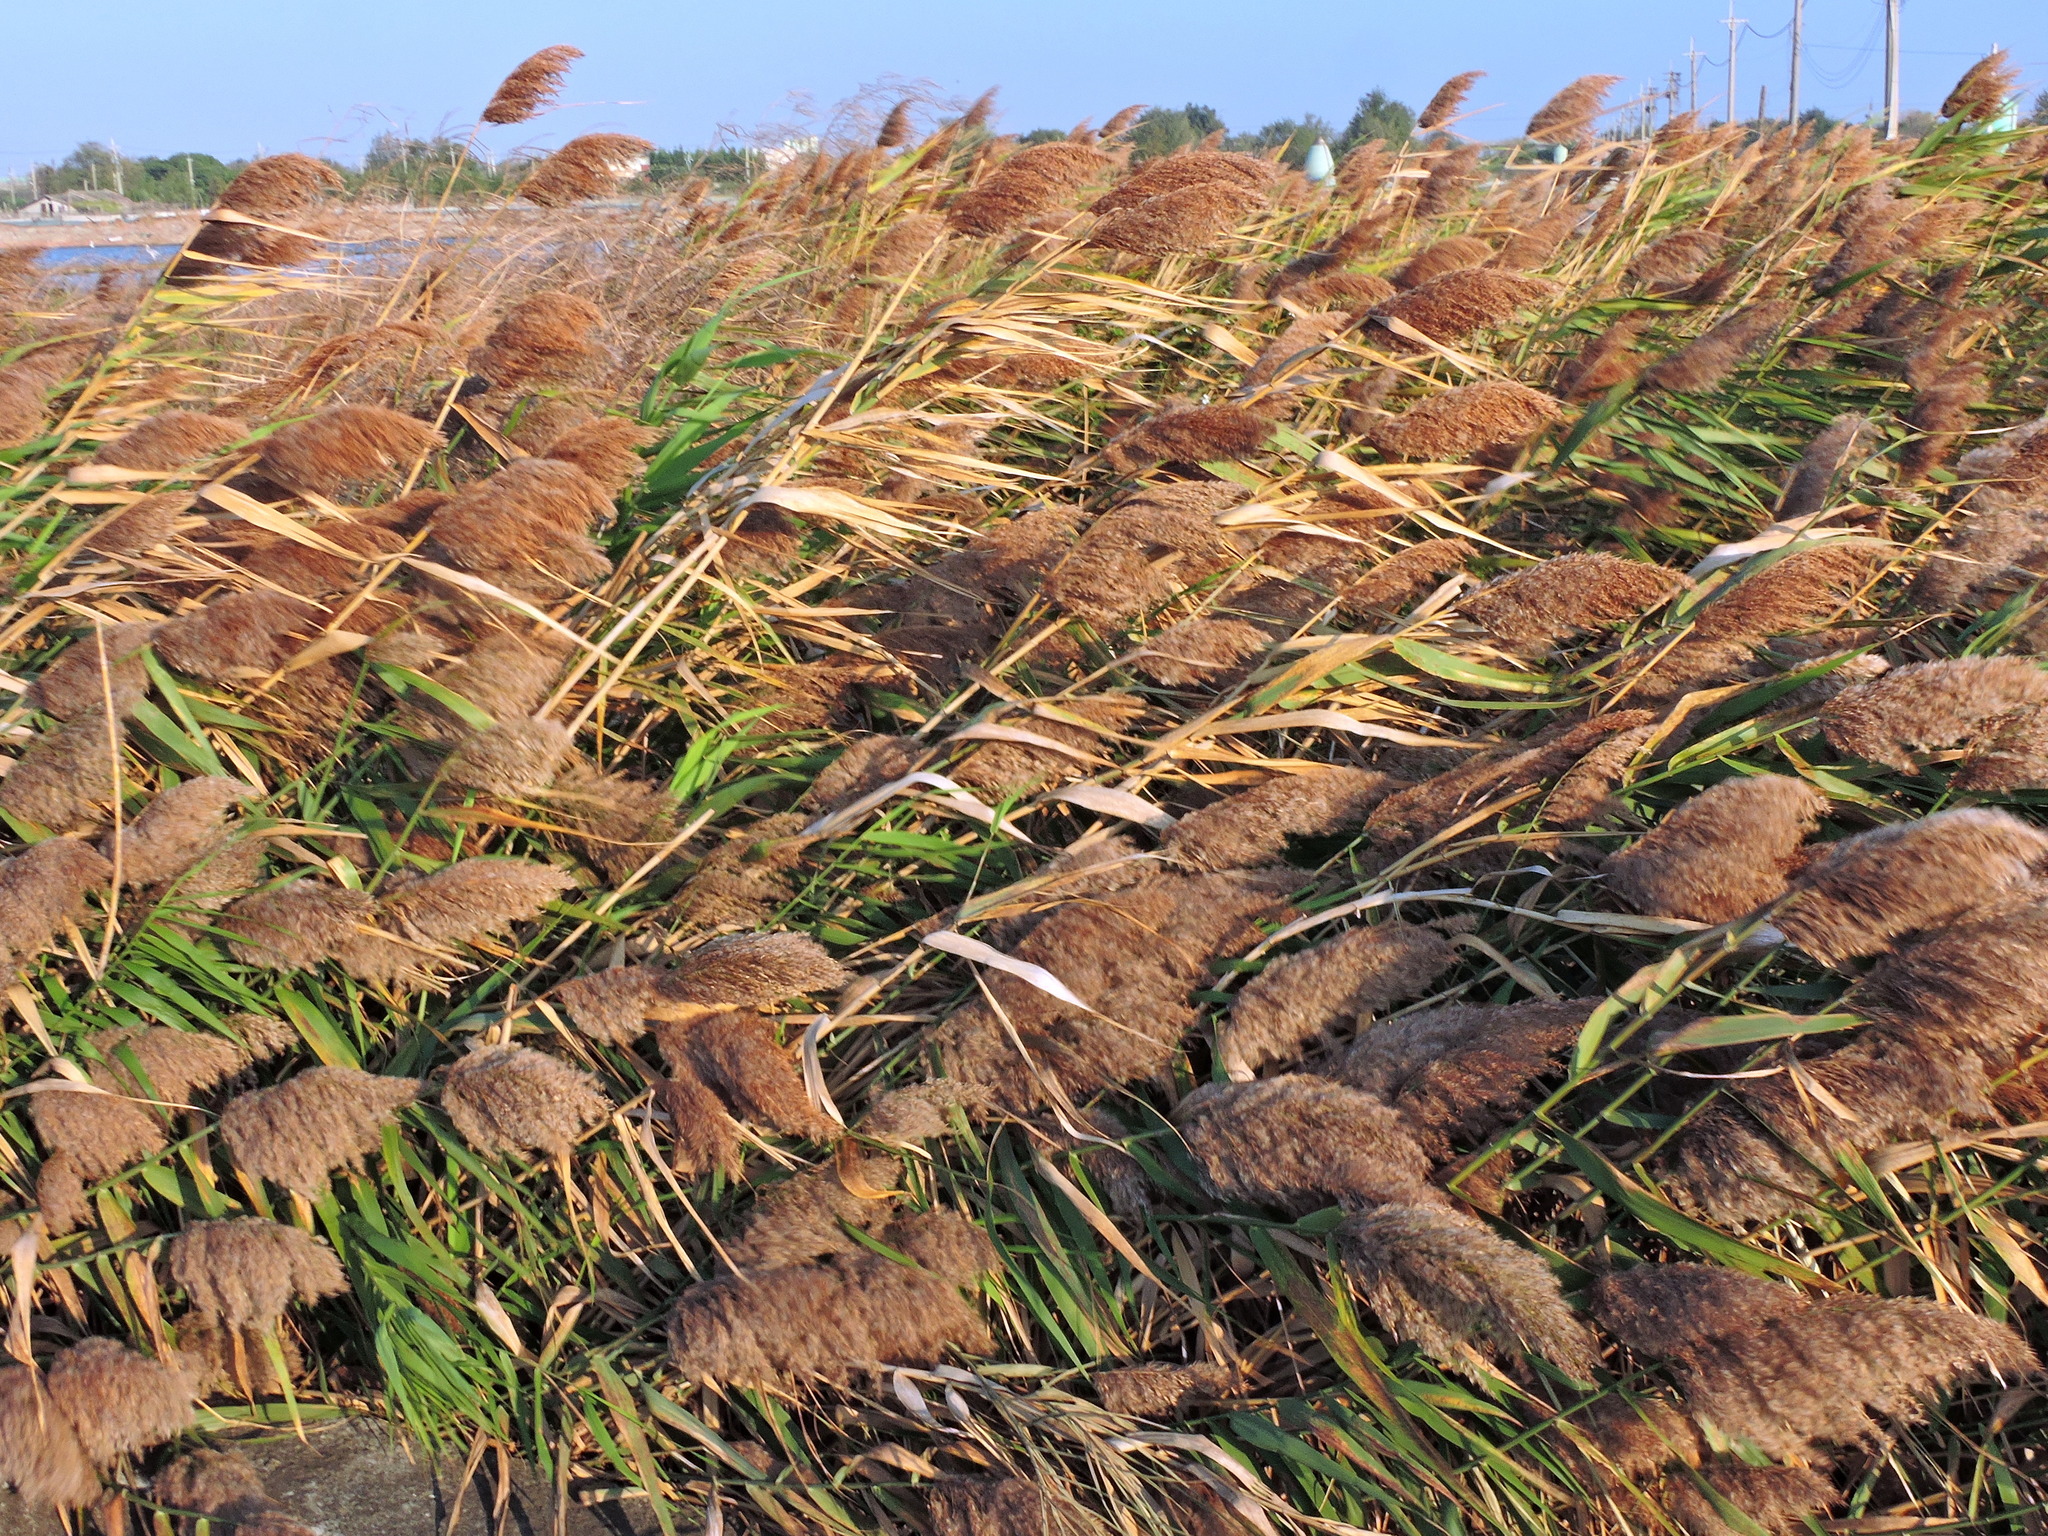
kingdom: Plantae
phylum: Tracheophyta
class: Liliopsida
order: Poales
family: Poaceae
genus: Phragmites
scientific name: Phragmites australis
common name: Common reed
